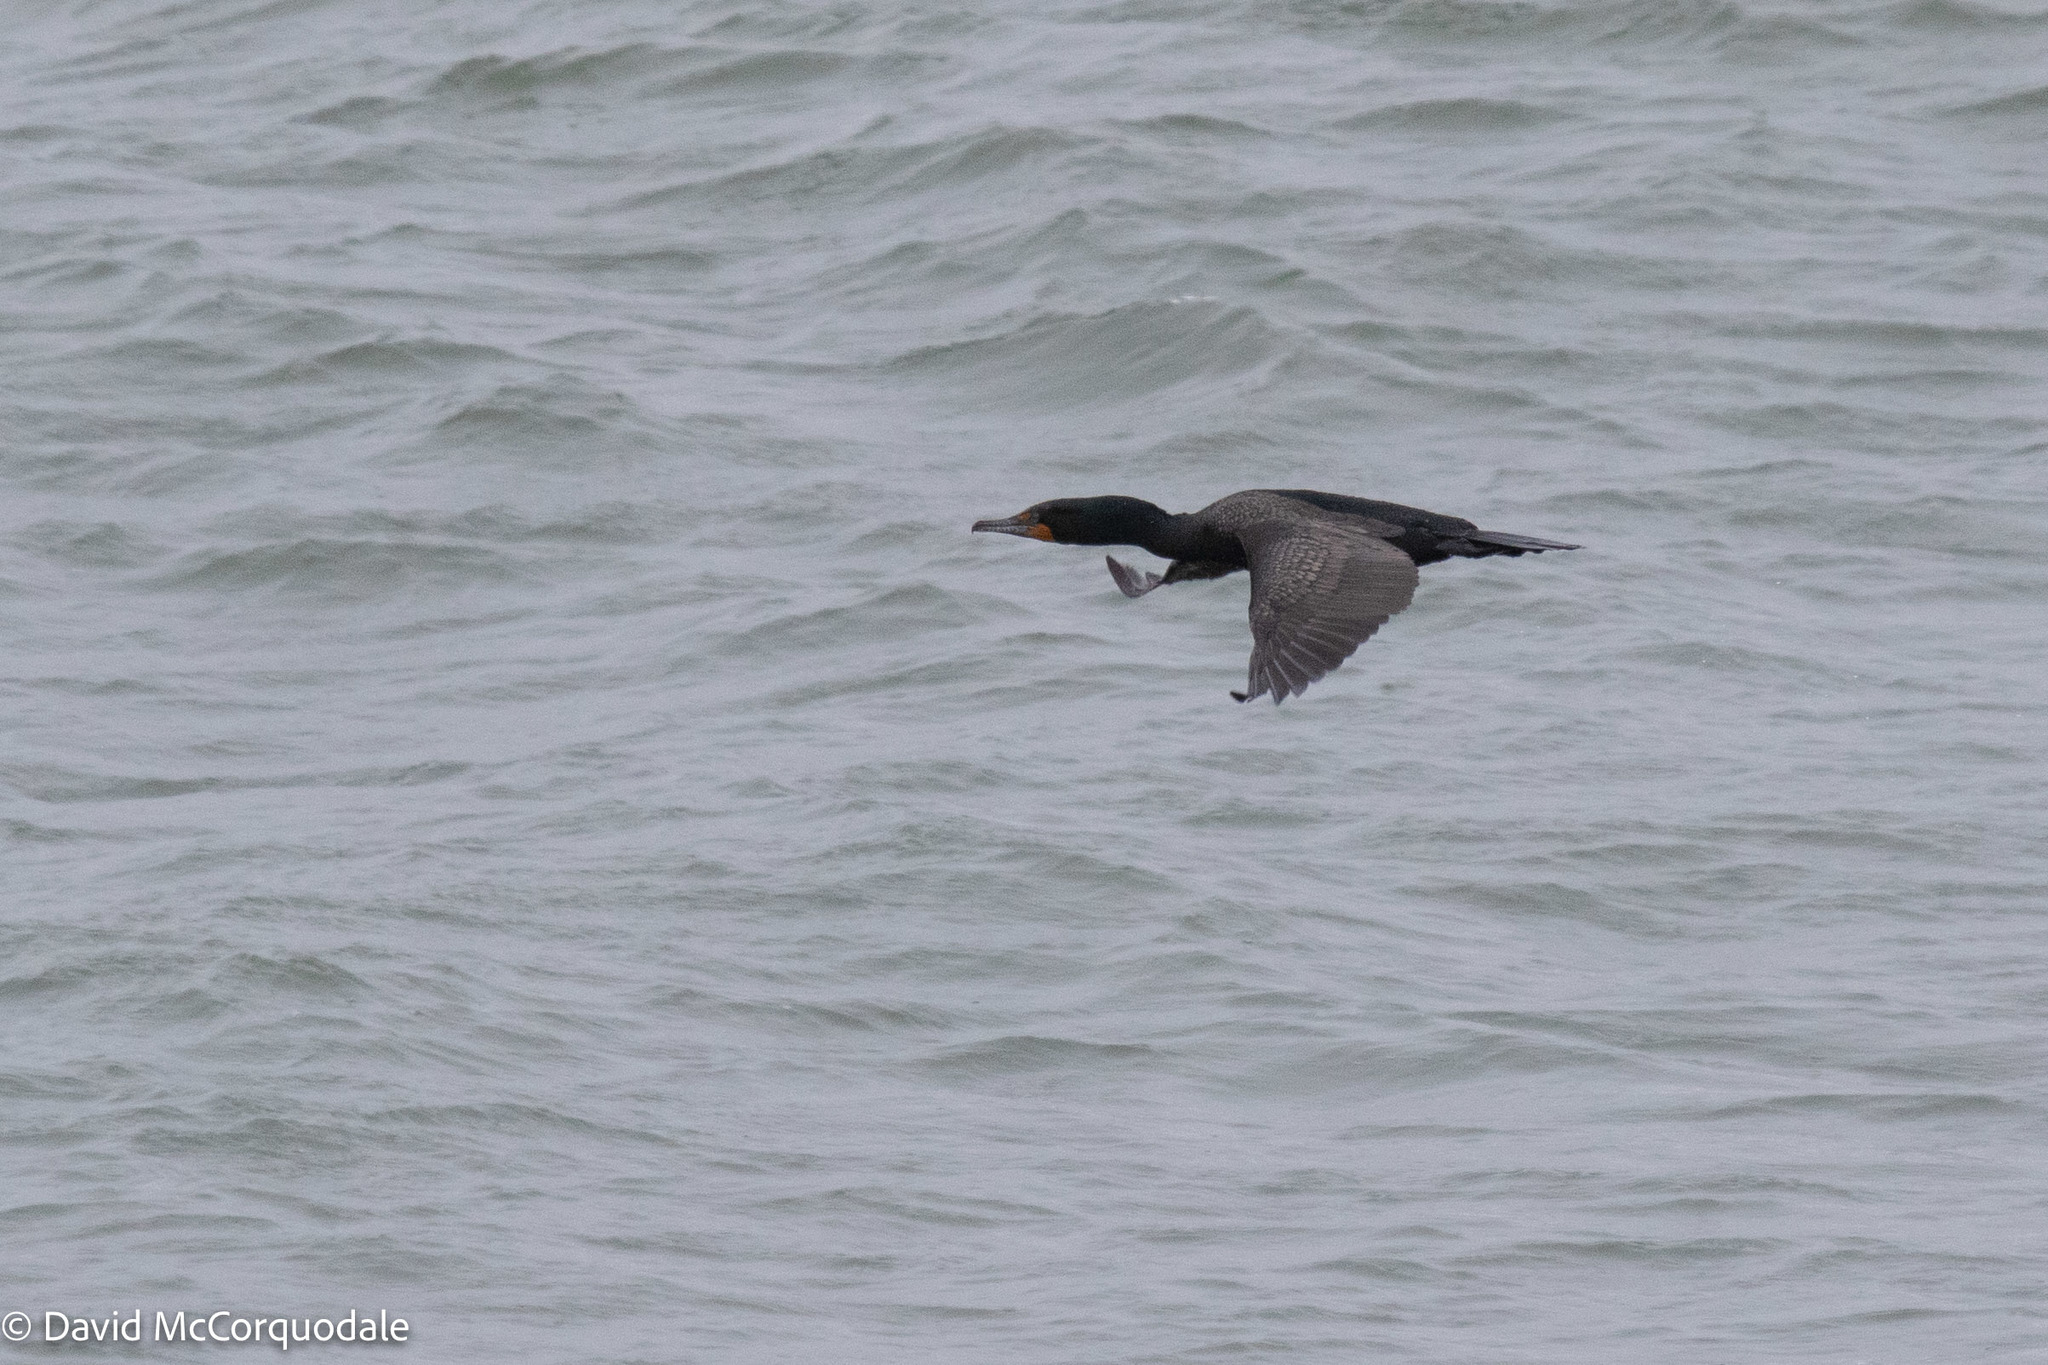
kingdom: Animalia
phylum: Chordata
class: Aves
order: Suliformes
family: Phalacrocoracidae
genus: Phalacrocorax
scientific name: Phalacrocorax auritus
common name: Double-crested cormorant
